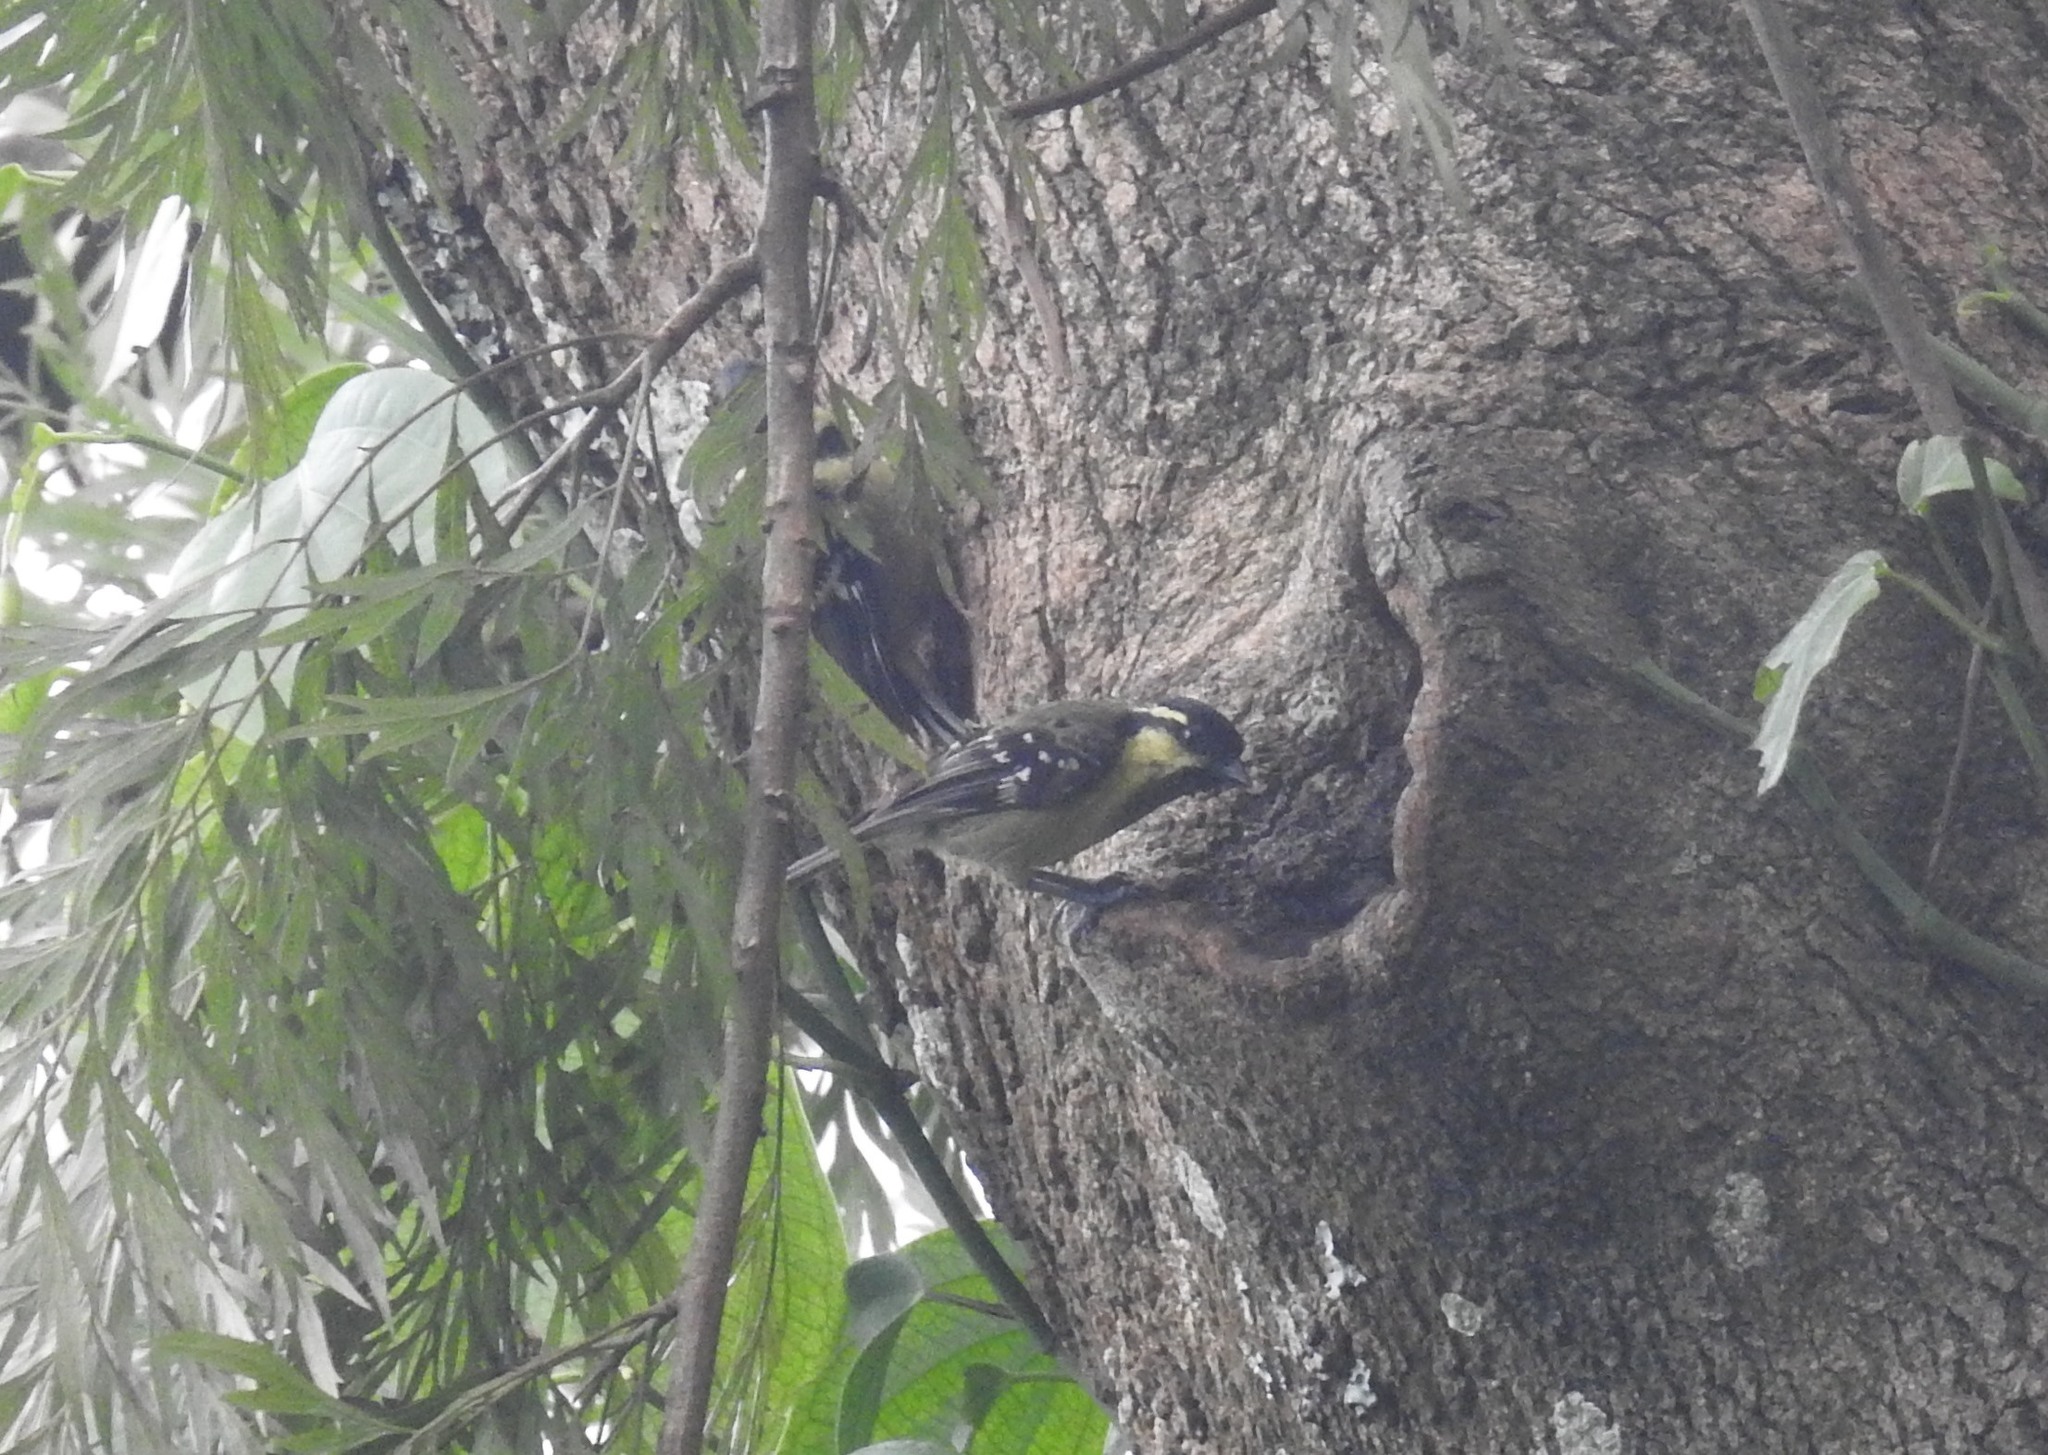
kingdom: Animalia
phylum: Chordata
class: Aves
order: Passeriformes
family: Paridae
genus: Parus
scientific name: Parus aplonotus
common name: Indian black-lored tit
